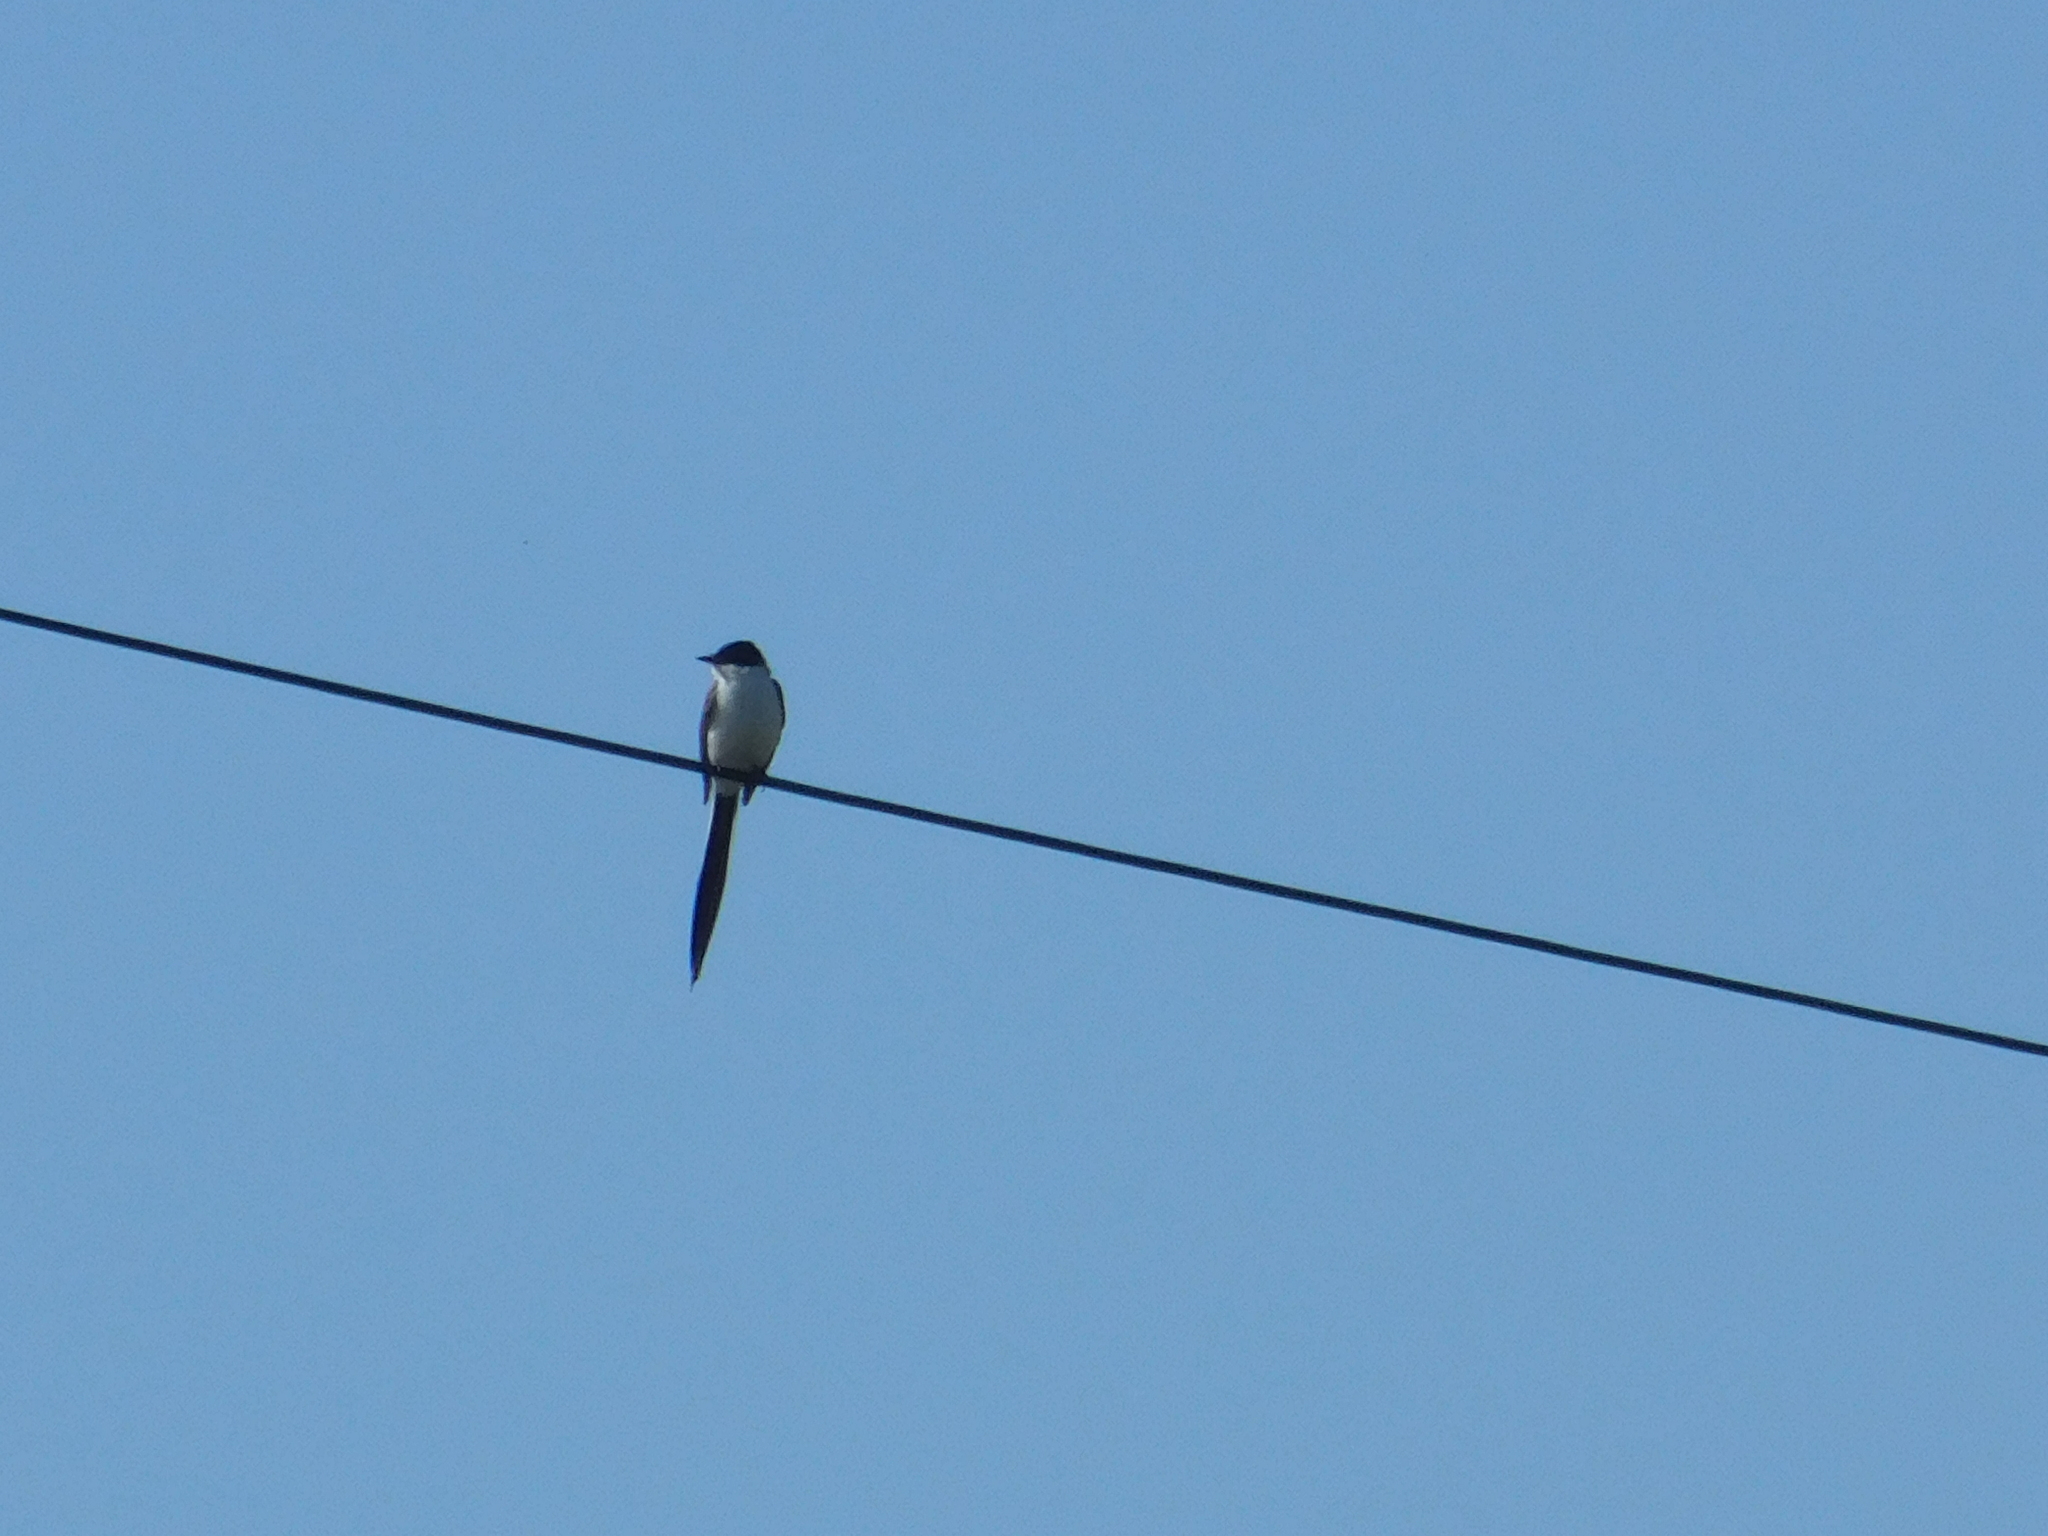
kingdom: Animalia
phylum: Chordata
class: Aves
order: Passeriformes
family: Tyrannidae
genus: Tyrannus
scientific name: Tyrannus savana
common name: Fork-tailed flycatcher
